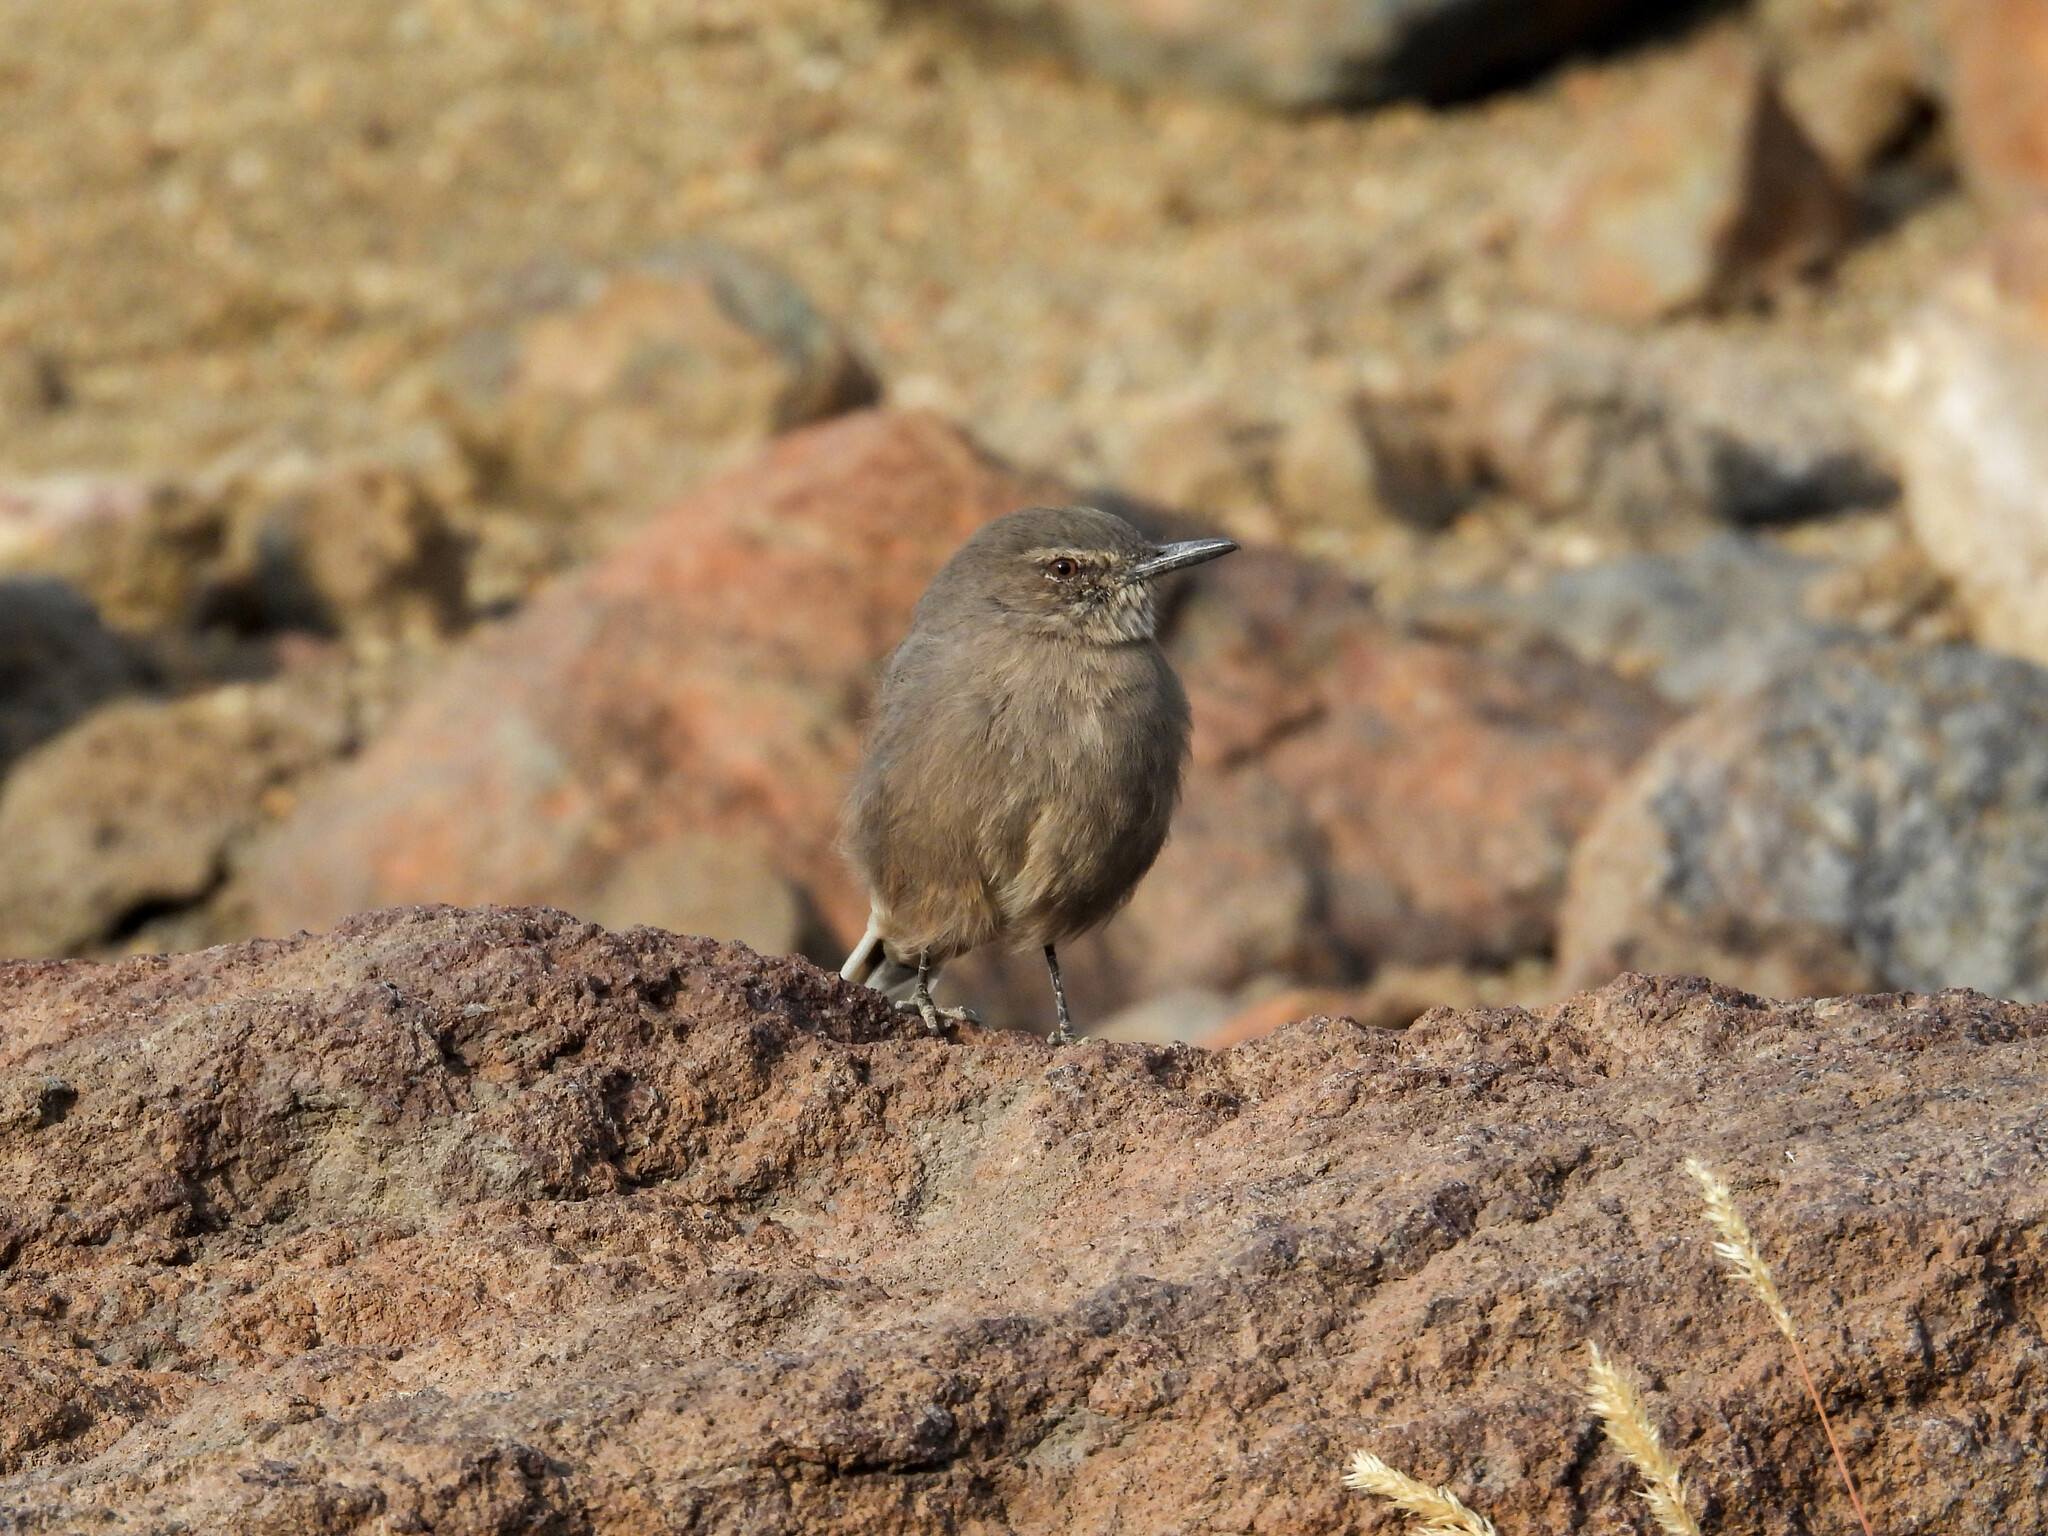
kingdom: Animalia
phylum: Chordata
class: Aves
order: Passeriformes
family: Tyrannidae
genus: Agriornis
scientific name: Agriornis montanus
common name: Black-billed shrike-tyrant
